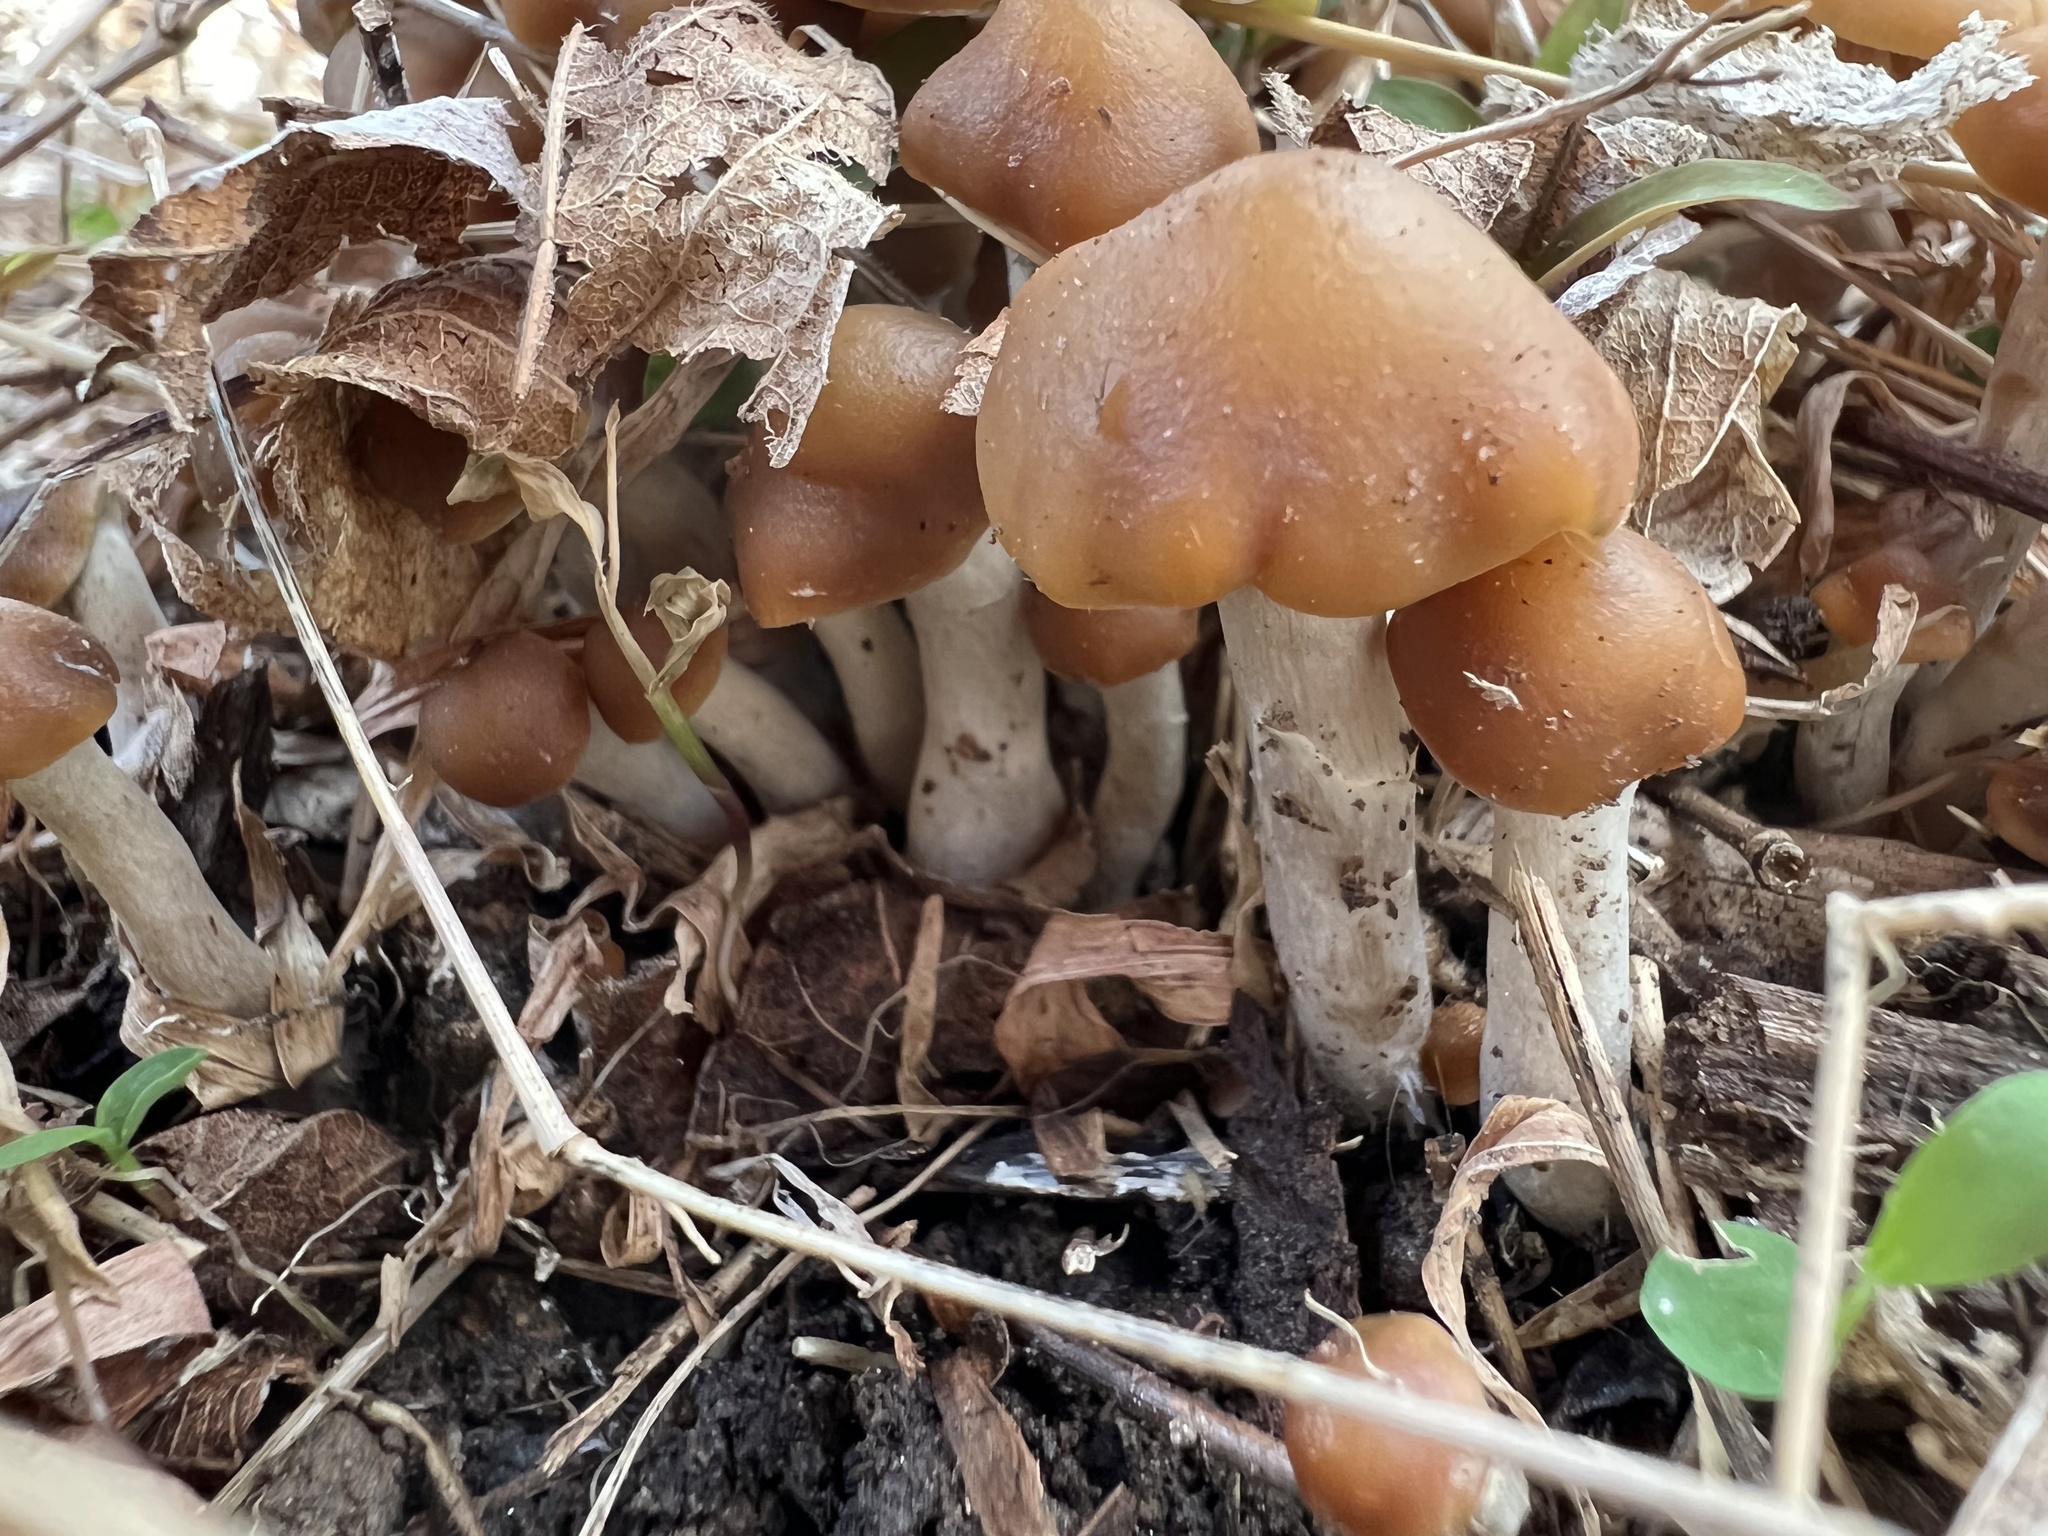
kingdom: Fungi
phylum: Basidiomycota
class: Agaricomycetes
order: Agaricales
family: Hymenogastraceae
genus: Psilocybe
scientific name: Psilocybe ovoideocystidiata
